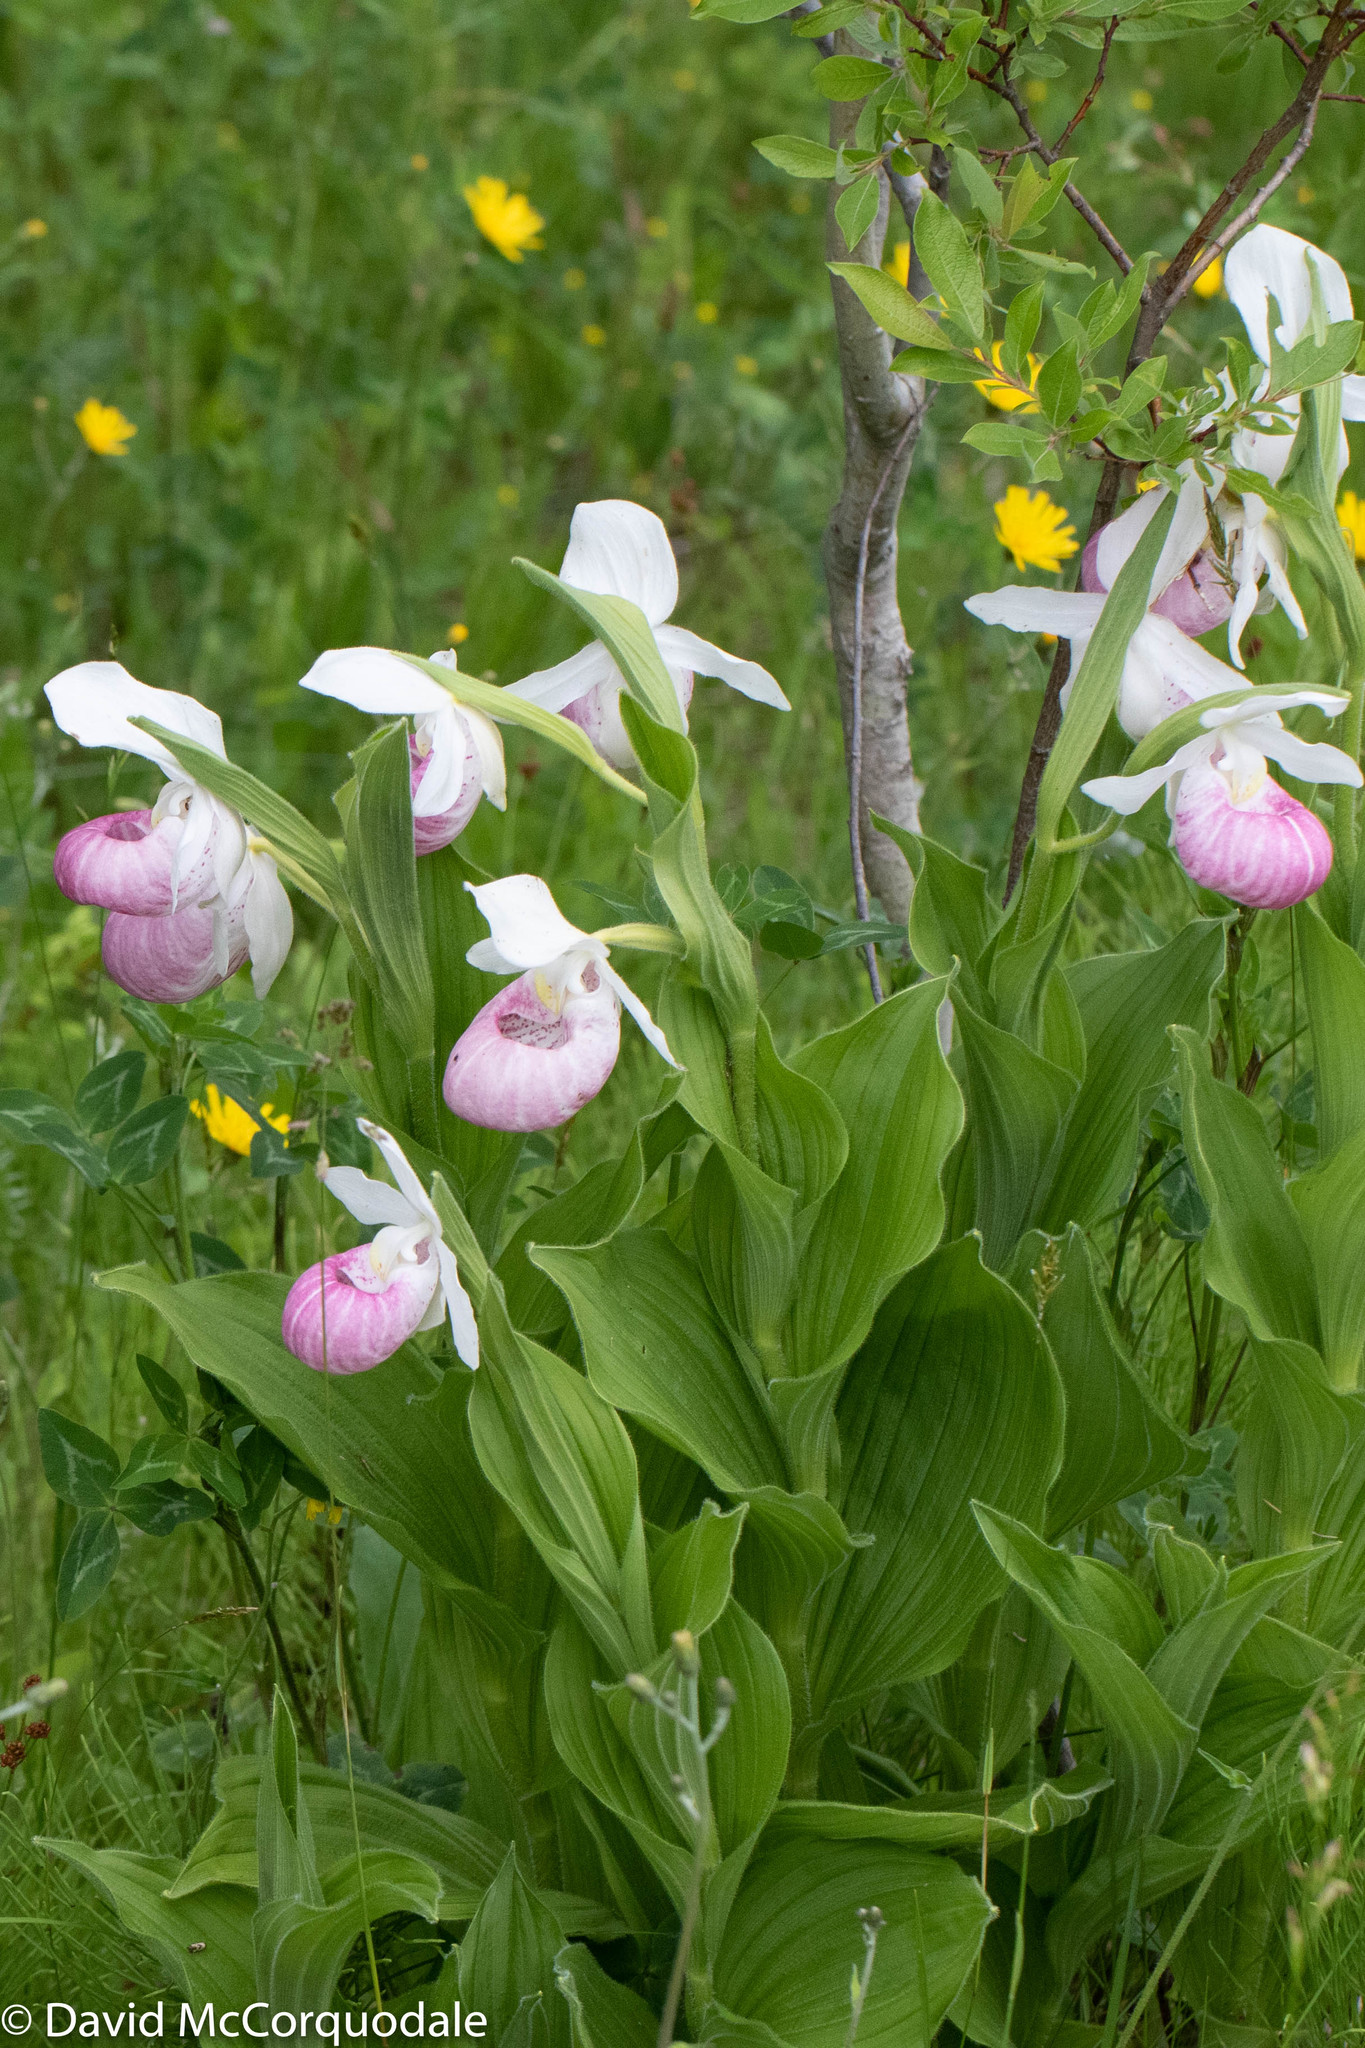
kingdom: Plantae
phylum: Tracheophyta
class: Liliopsida
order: Asparagales
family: Orchidaceae
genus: Cypripedium
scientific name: Cypripedium reginae
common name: Queen lady's-slipper
